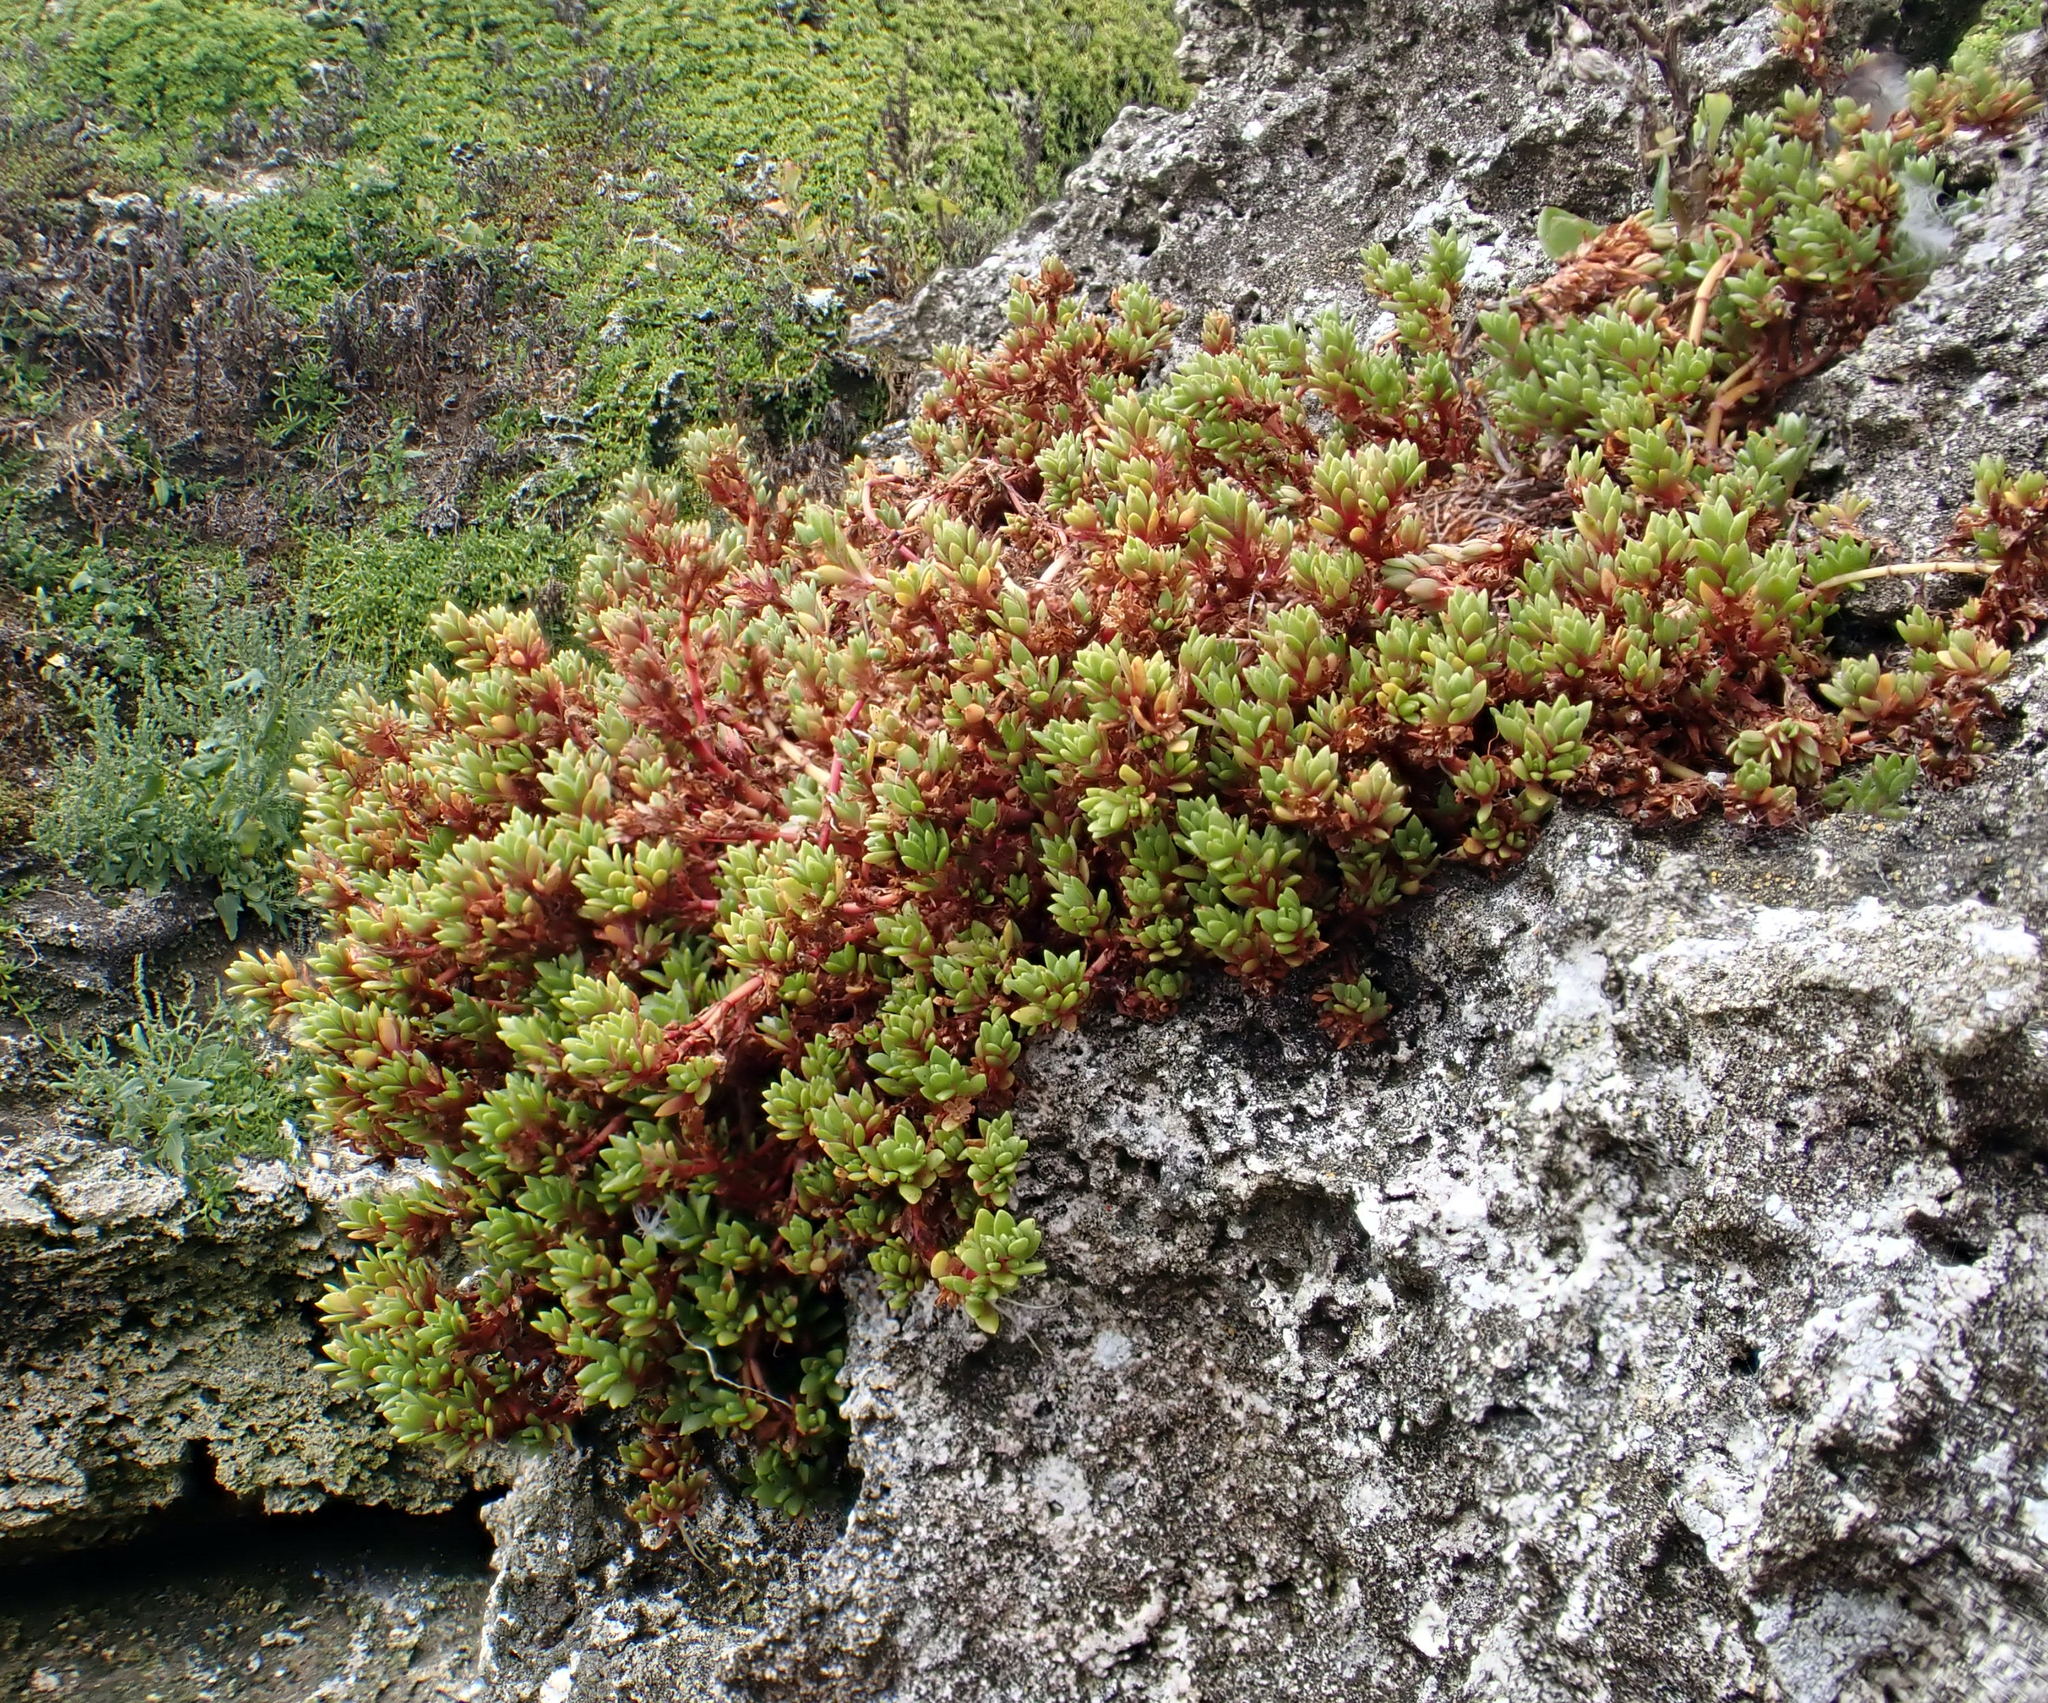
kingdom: Plantae
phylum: Tracheophyta
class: Magnoliopsida
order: Saxifragales
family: Crassulaceae
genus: Crassula
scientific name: Crassula moschata
